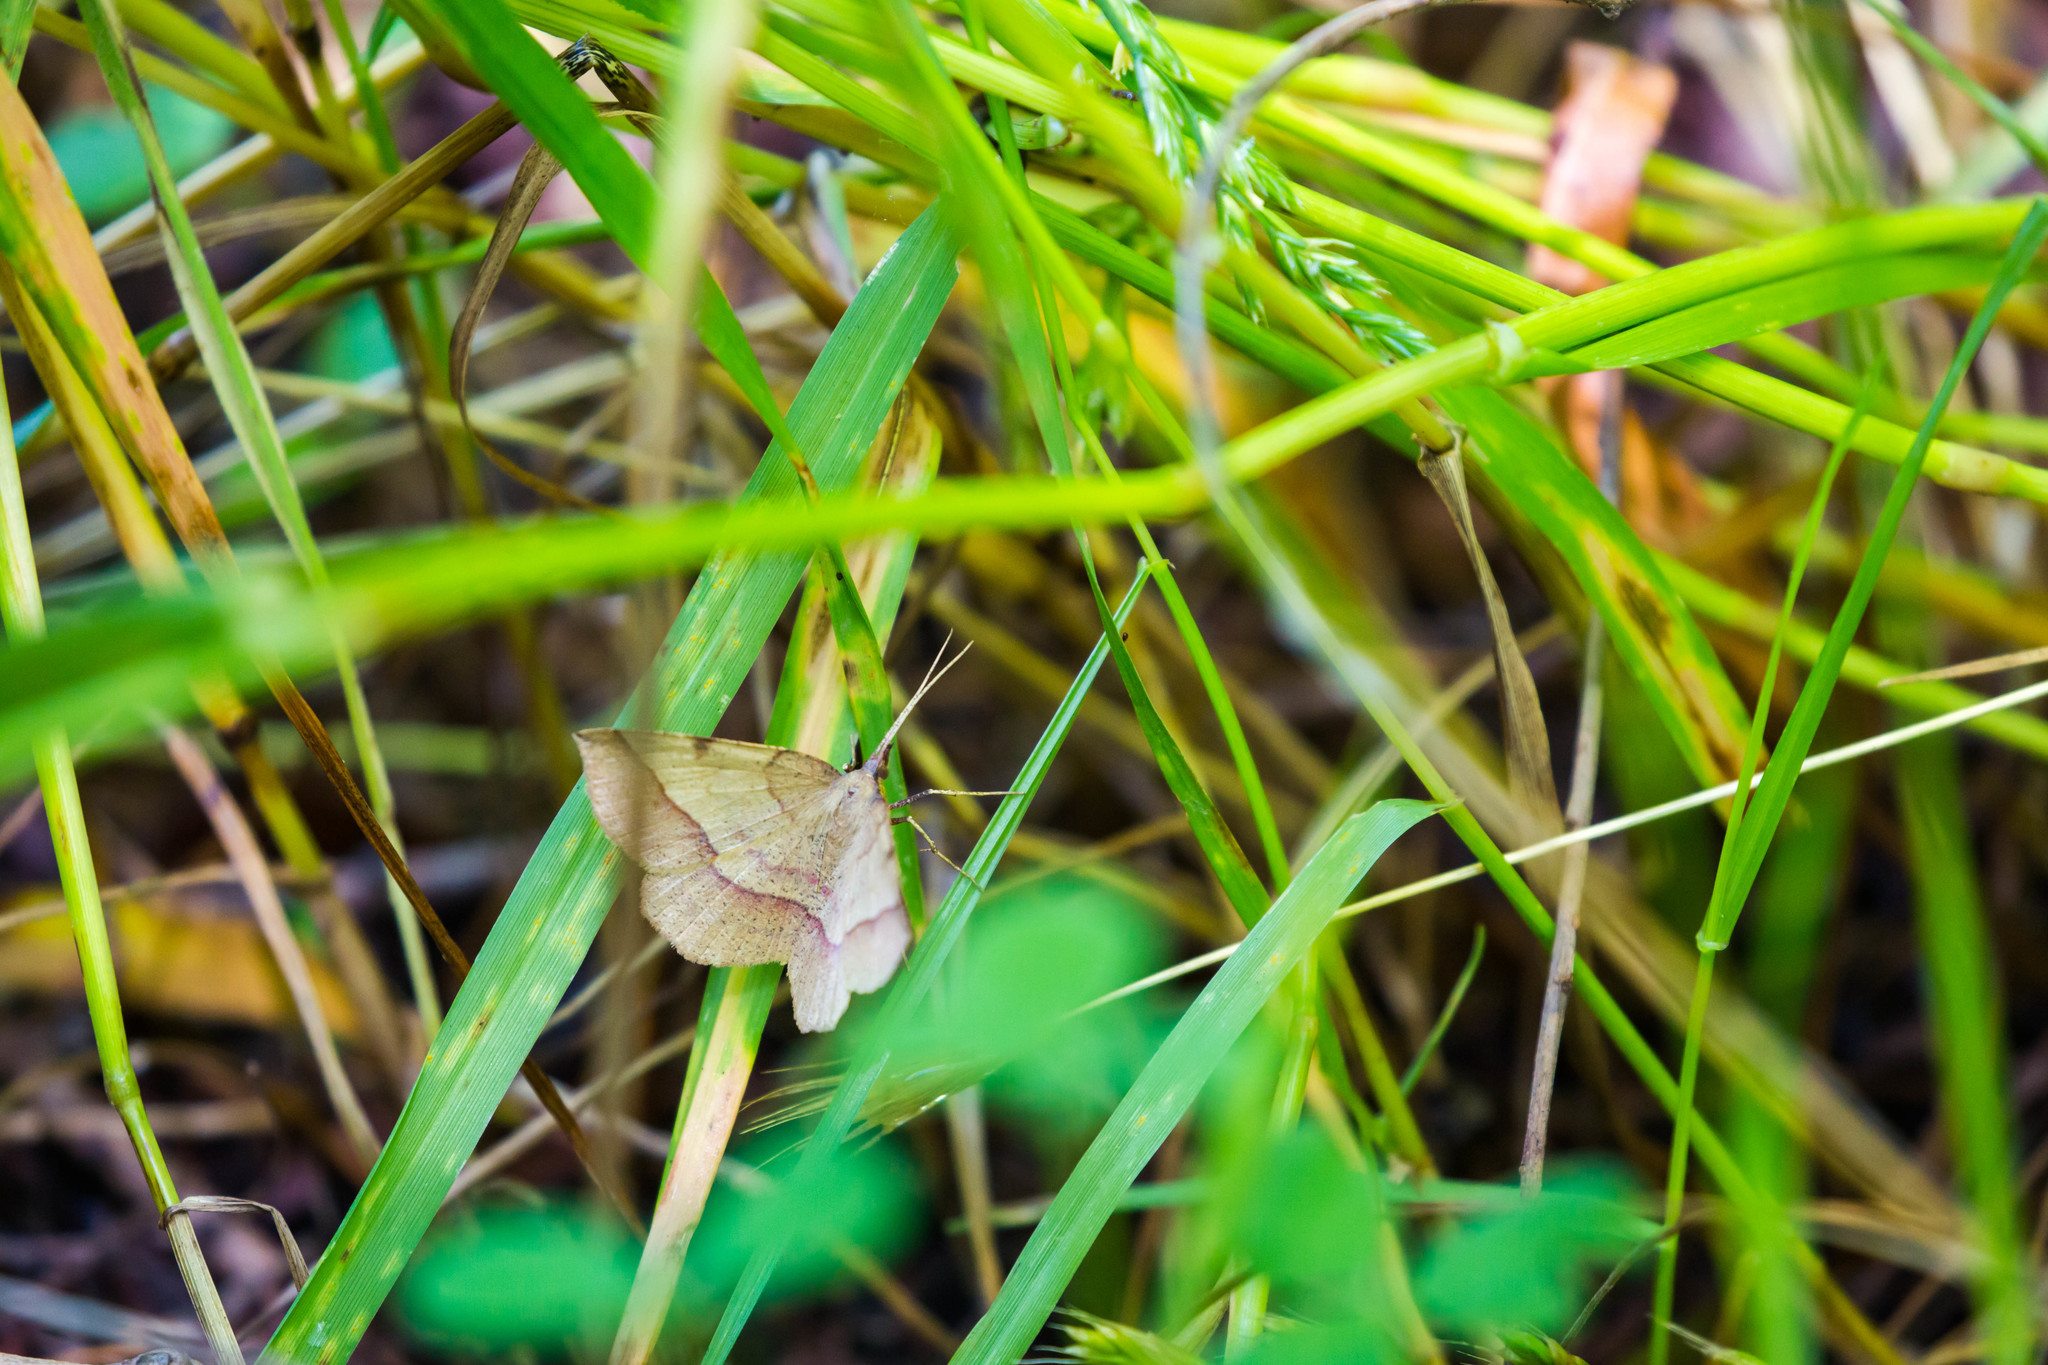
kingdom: Animalia
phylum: Arthropoda
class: Insecta
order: Lepidoptera
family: Geometridae
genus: Erastria
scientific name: Erastria cruentaria
